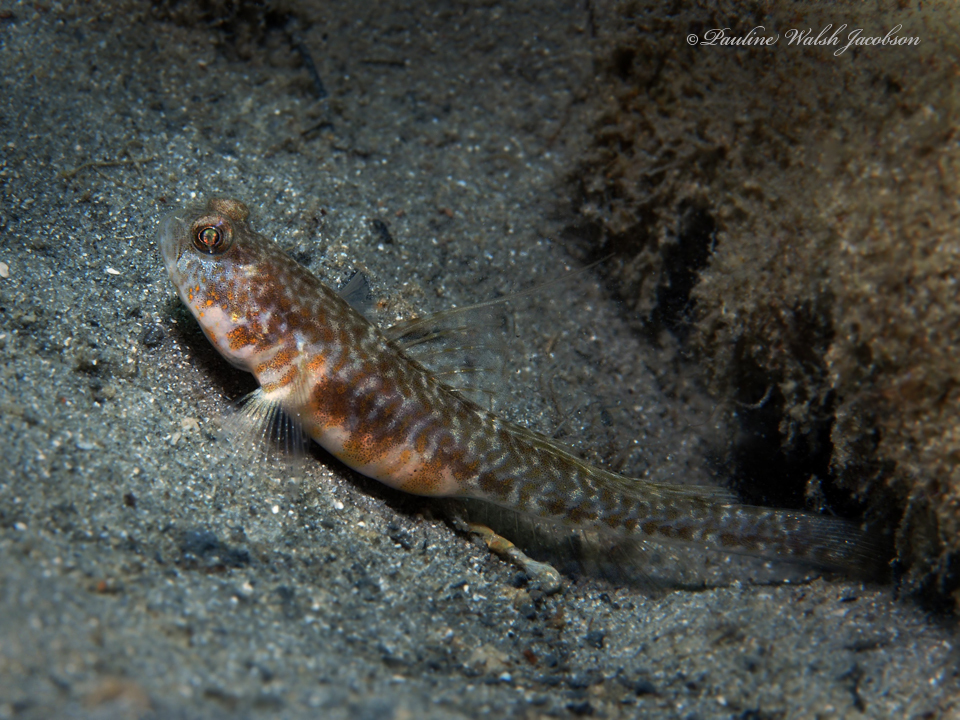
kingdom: Animalia
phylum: Chordata
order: Perciformes
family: Gobiidae
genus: Nes
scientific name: Nes longus
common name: Orangespotted goby
